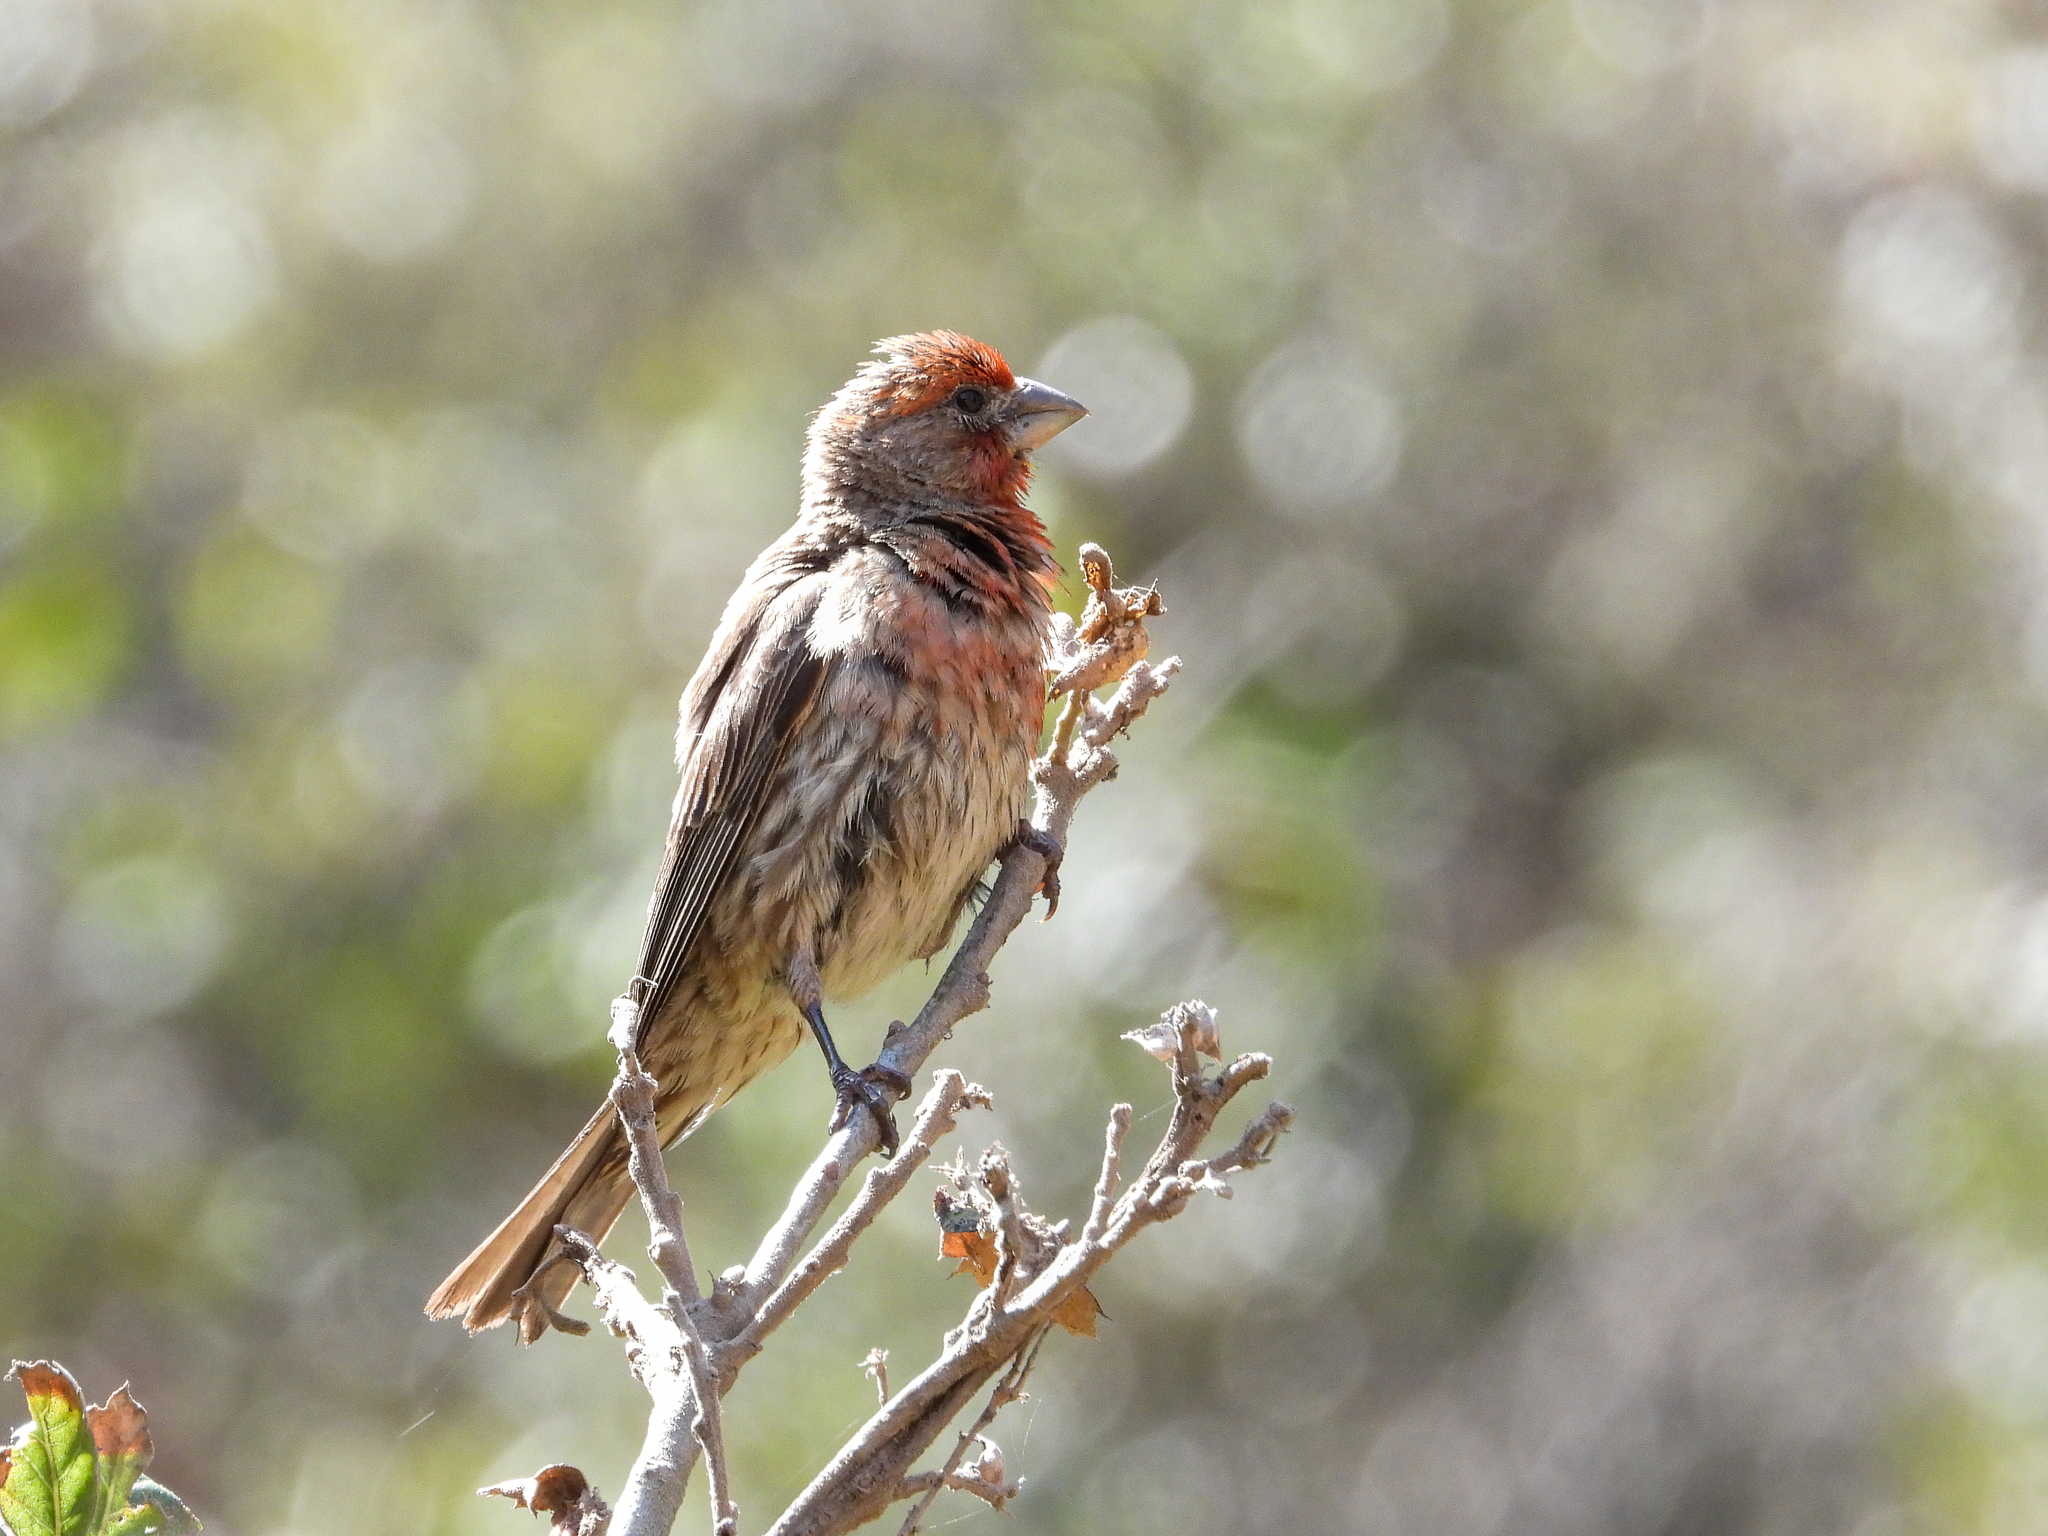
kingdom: Animalia
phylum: Chordata
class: Aves
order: Passeriformes
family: Fringillidae
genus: Haemorhous
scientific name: Haemorhous mexicanus
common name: House finch
